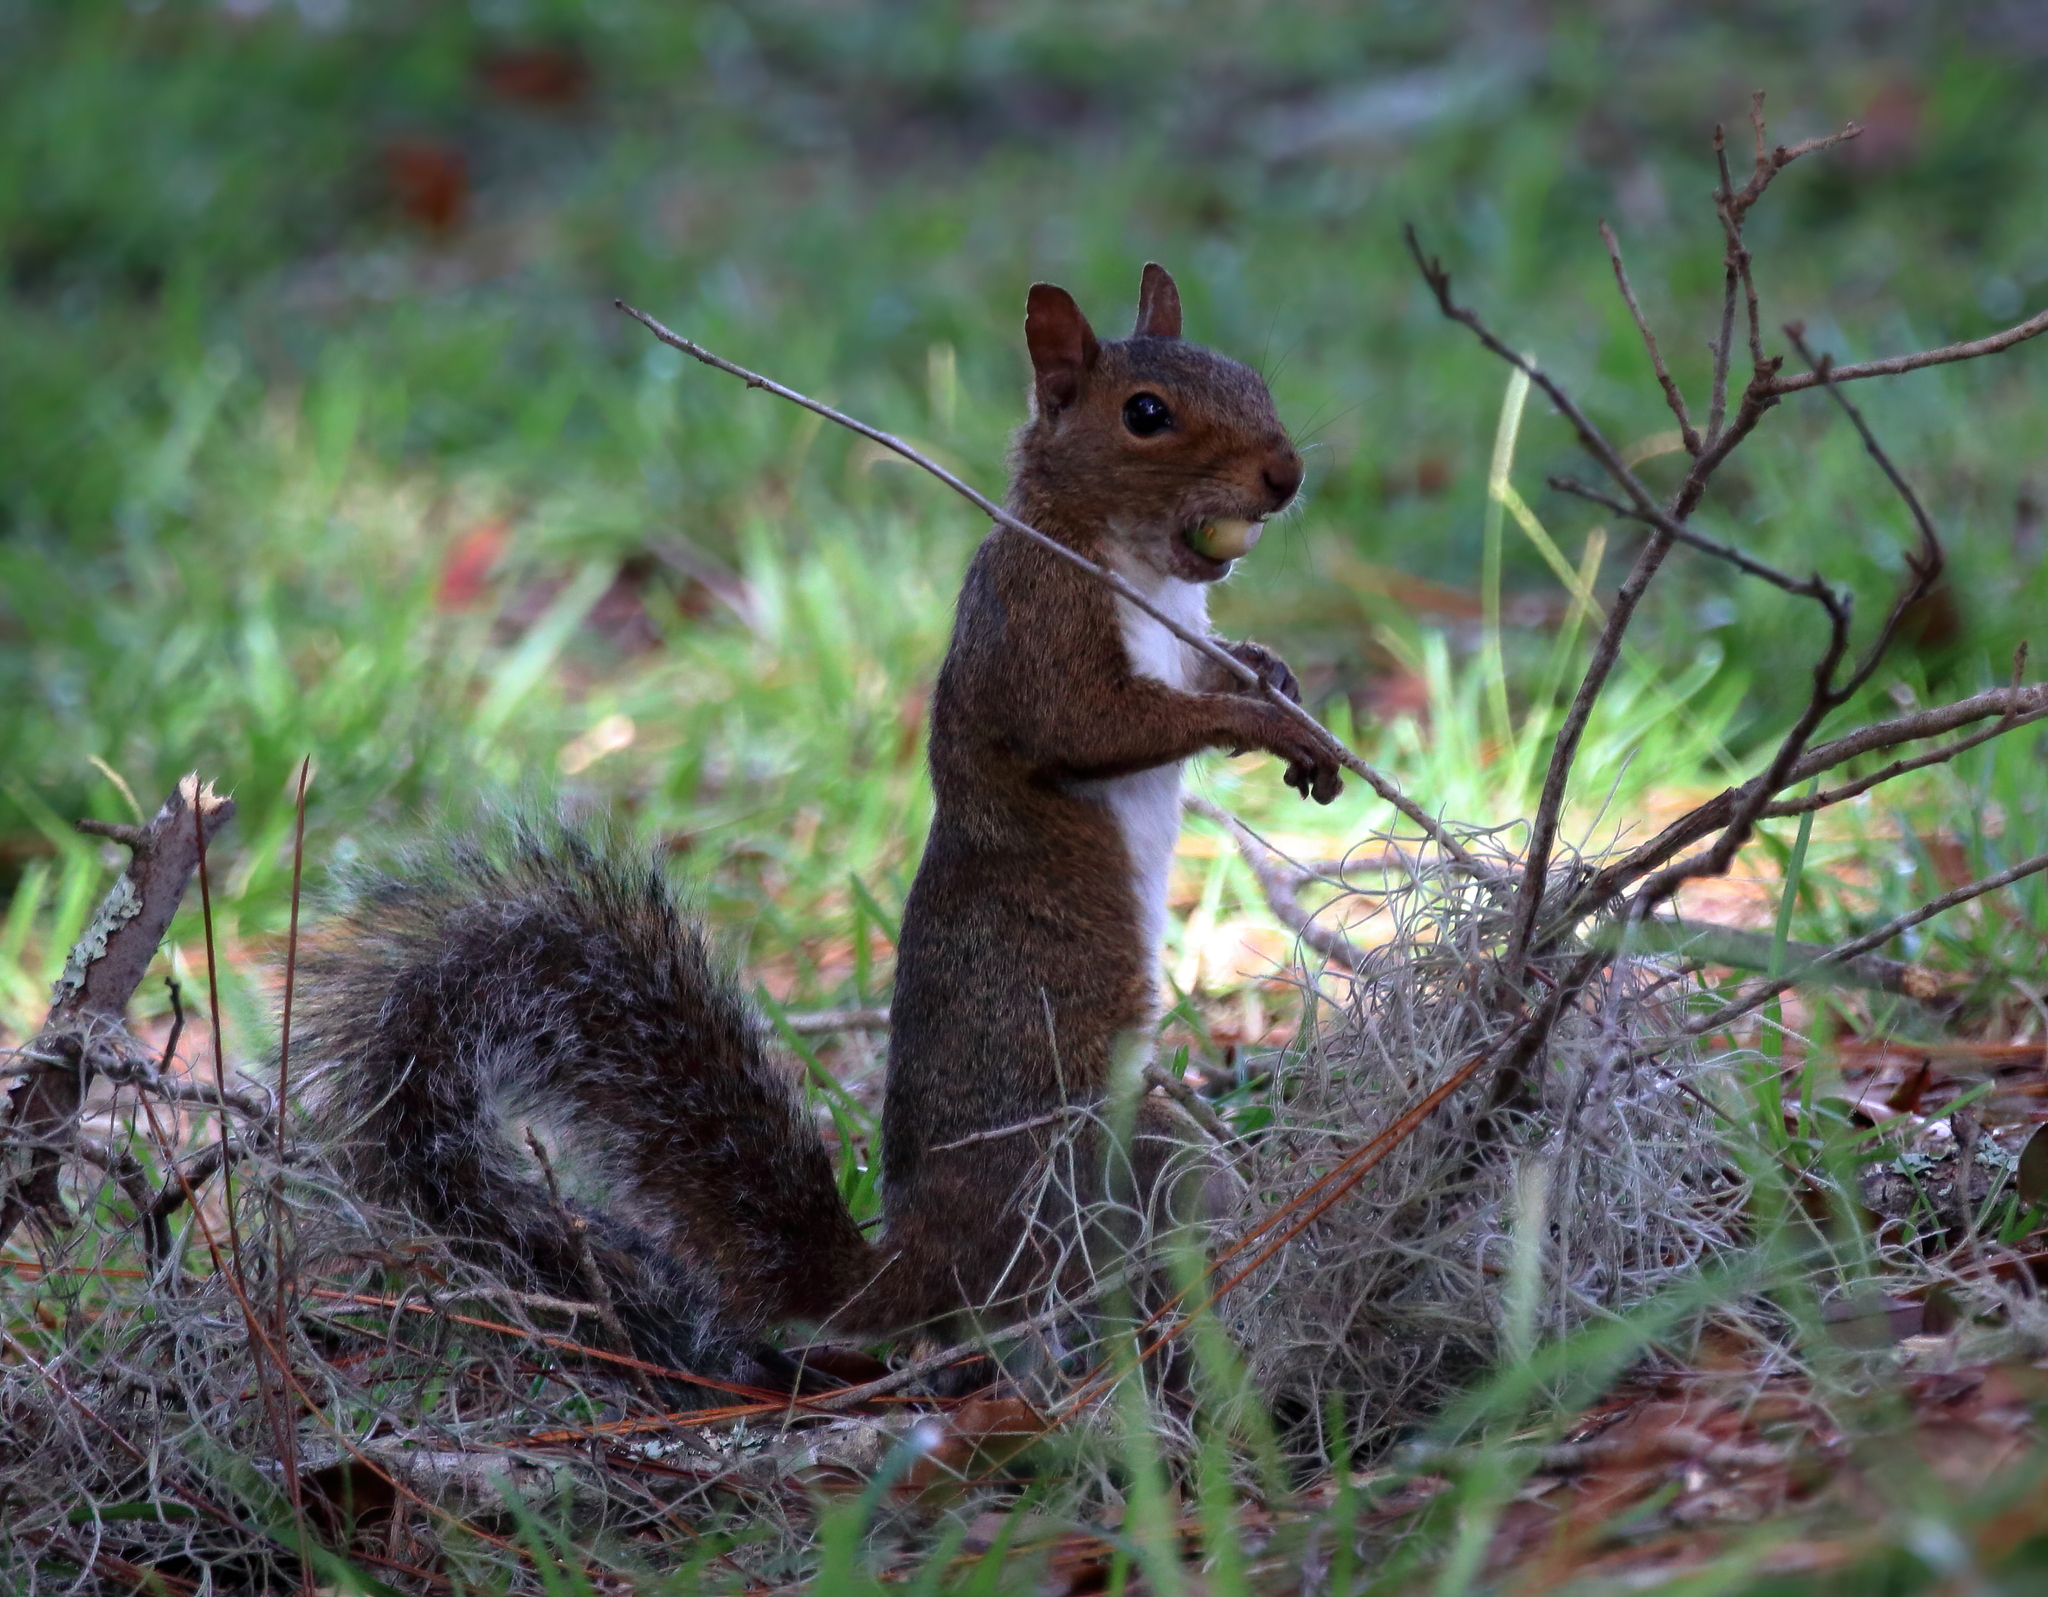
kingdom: Animalia
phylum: Chordata
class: Mammalia
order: Rodentia
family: Sciuridae
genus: Sciurus
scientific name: Sciurus carolinensis
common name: Eastern gray squirrel
